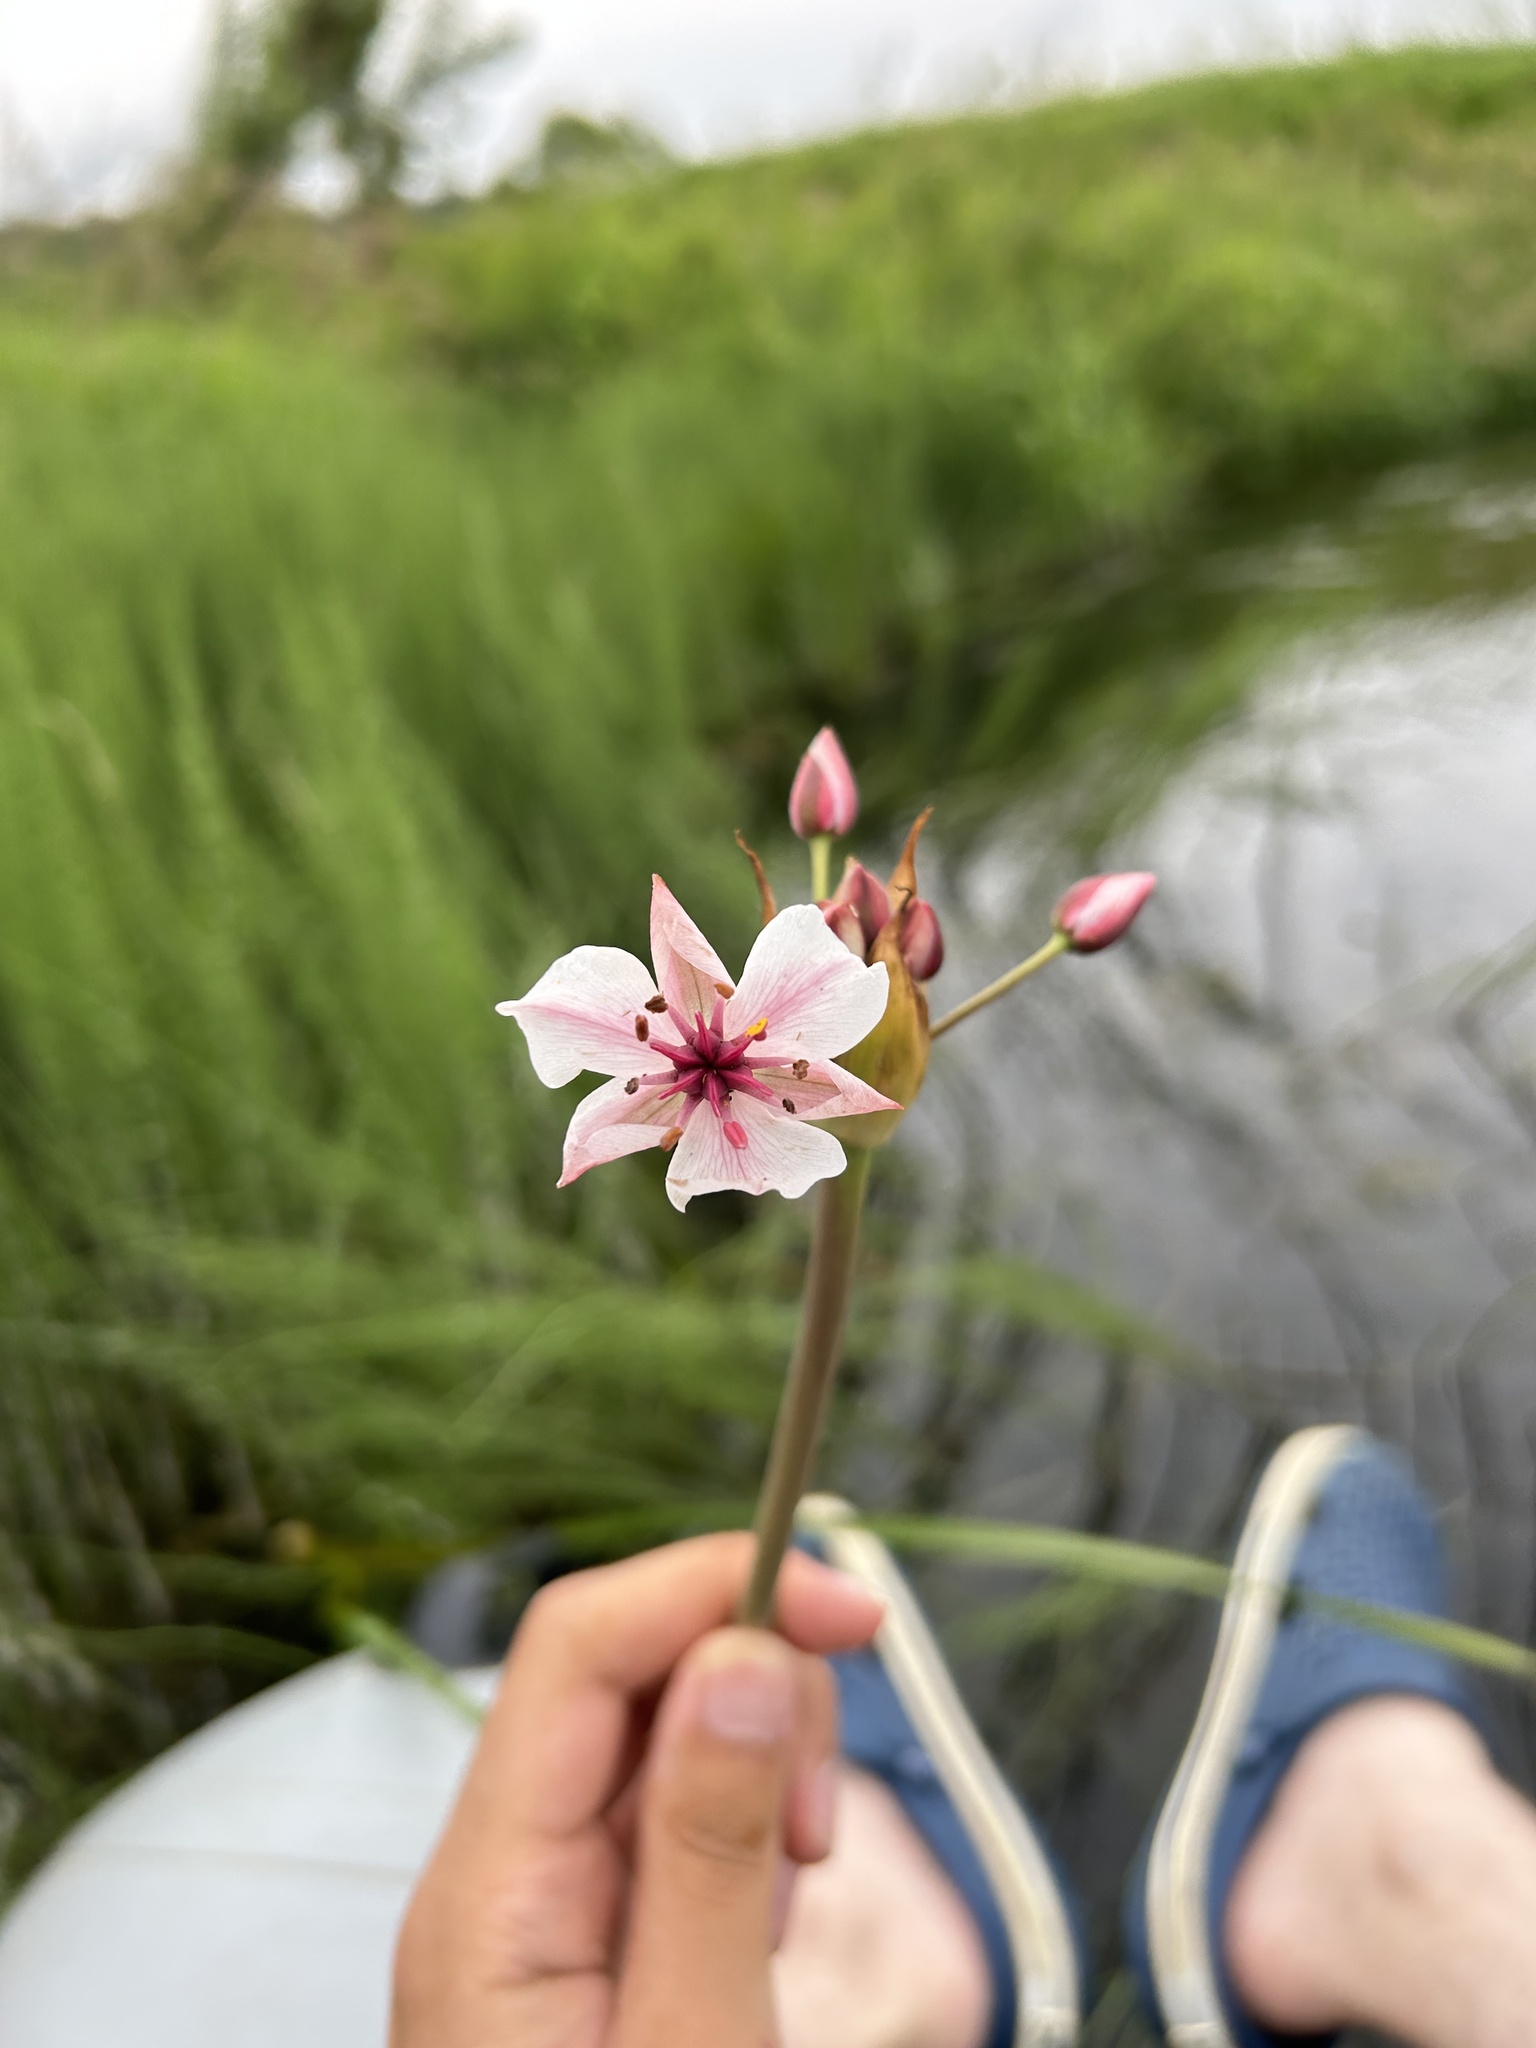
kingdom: Plantae
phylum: Tracheophyta
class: Liliopsida
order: Alismatales
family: Butomaceae
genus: Butomus
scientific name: Butomus umbellatus
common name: Flowering-rush
